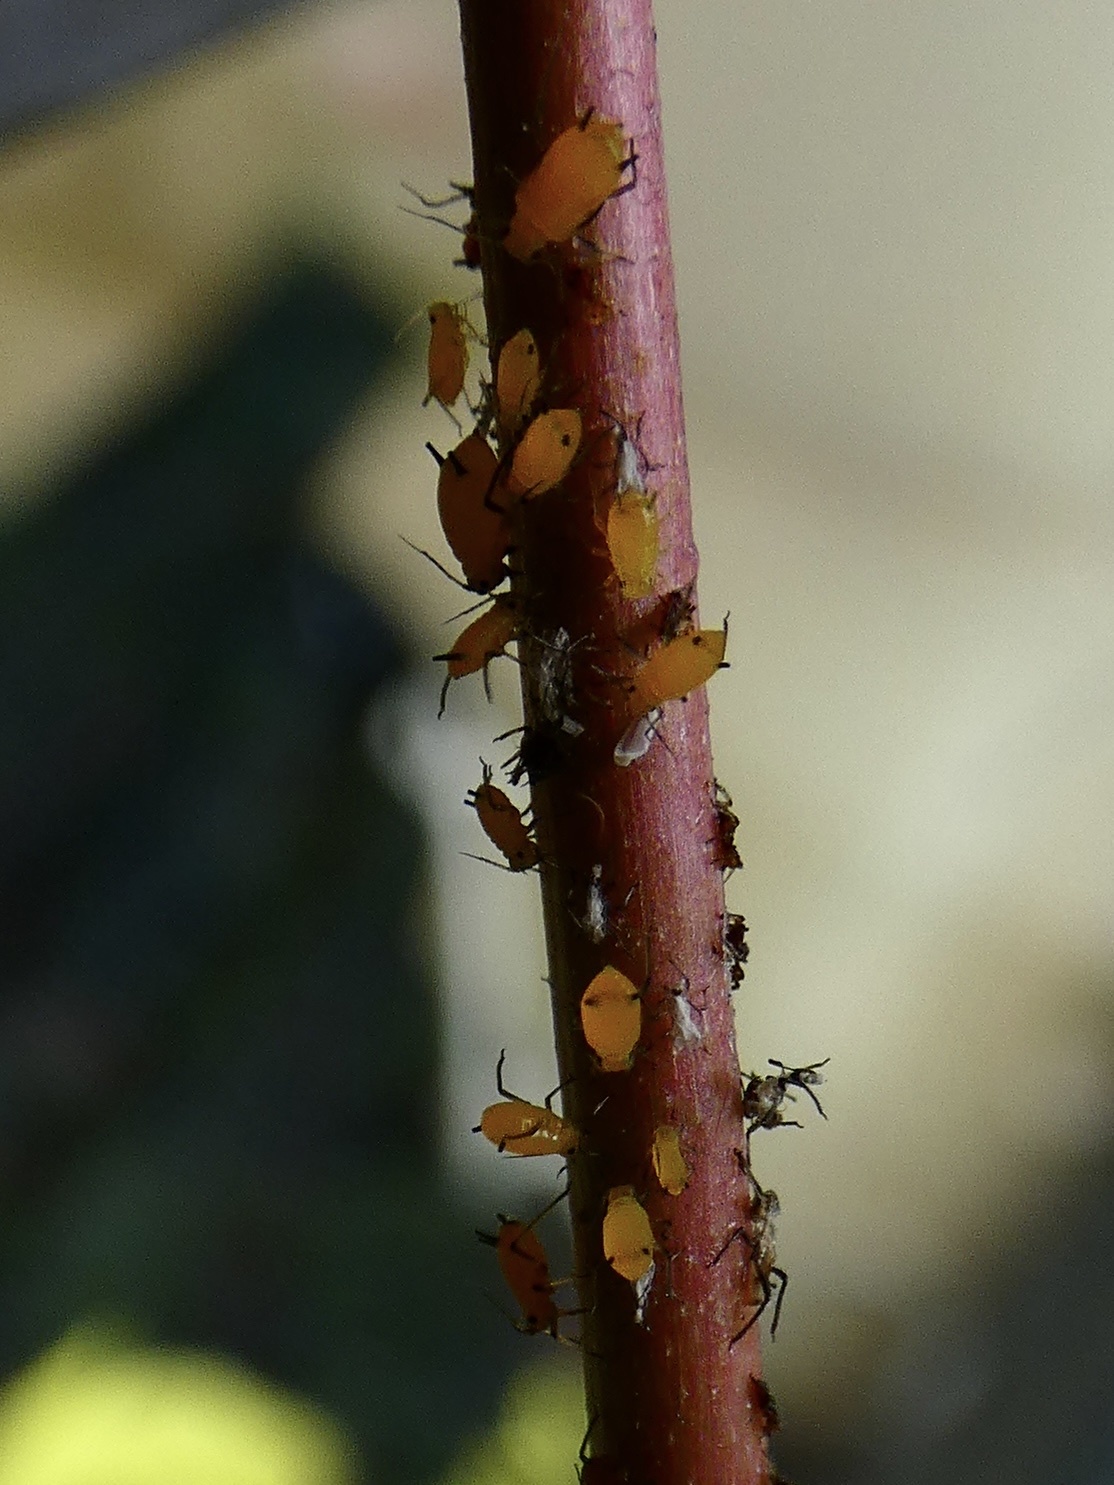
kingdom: Animalia
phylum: Arthropoda
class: Insecta
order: Hemiptera
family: Aphididae
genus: Aphis
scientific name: Aphis nerii
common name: Oleander aphid
